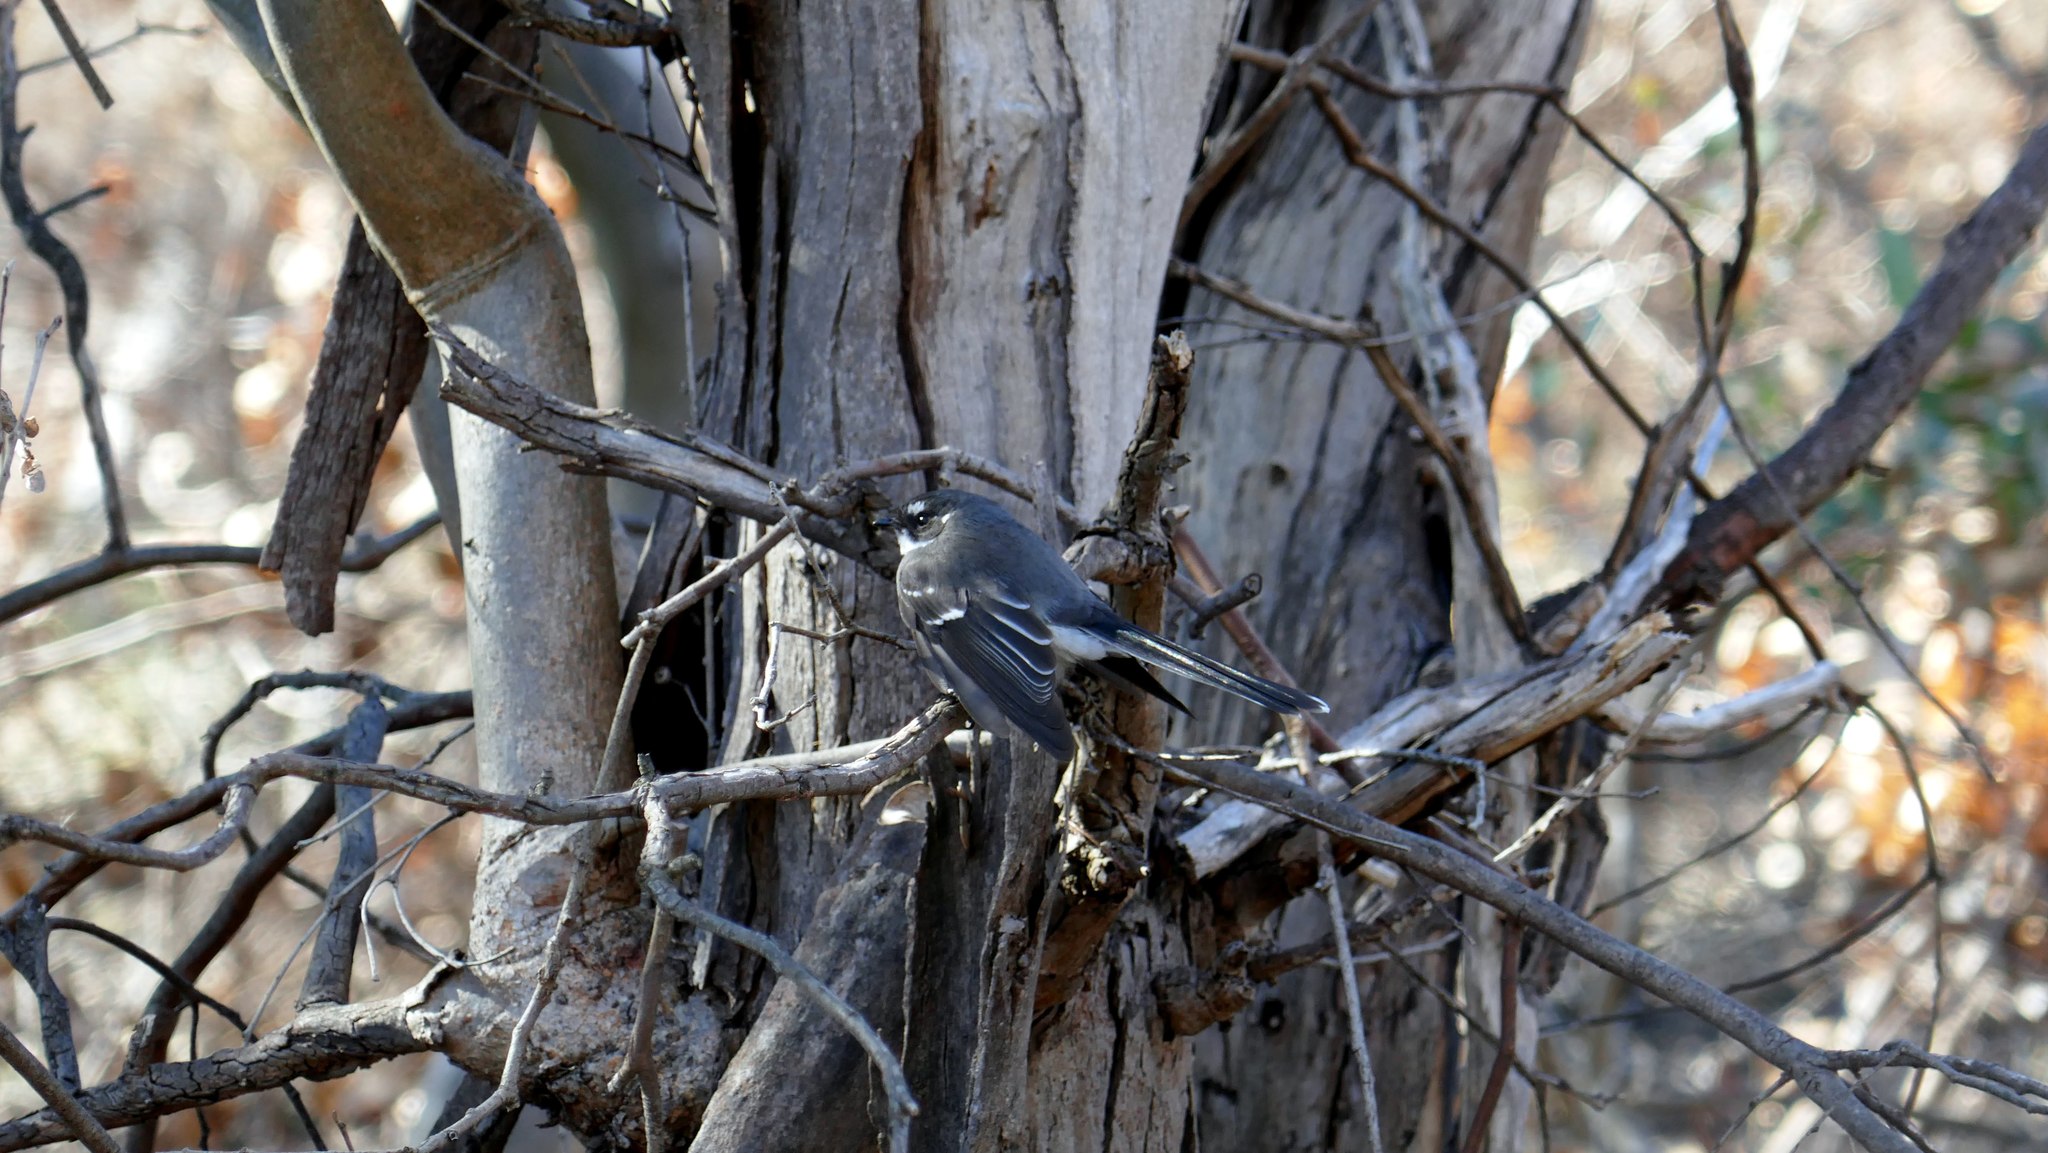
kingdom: Animalia
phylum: Chordata
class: Aves
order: Passeriformes
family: Rhipiduridae
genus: Rhipidura
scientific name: Rhipidura albiscapa
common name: Grey fantail
